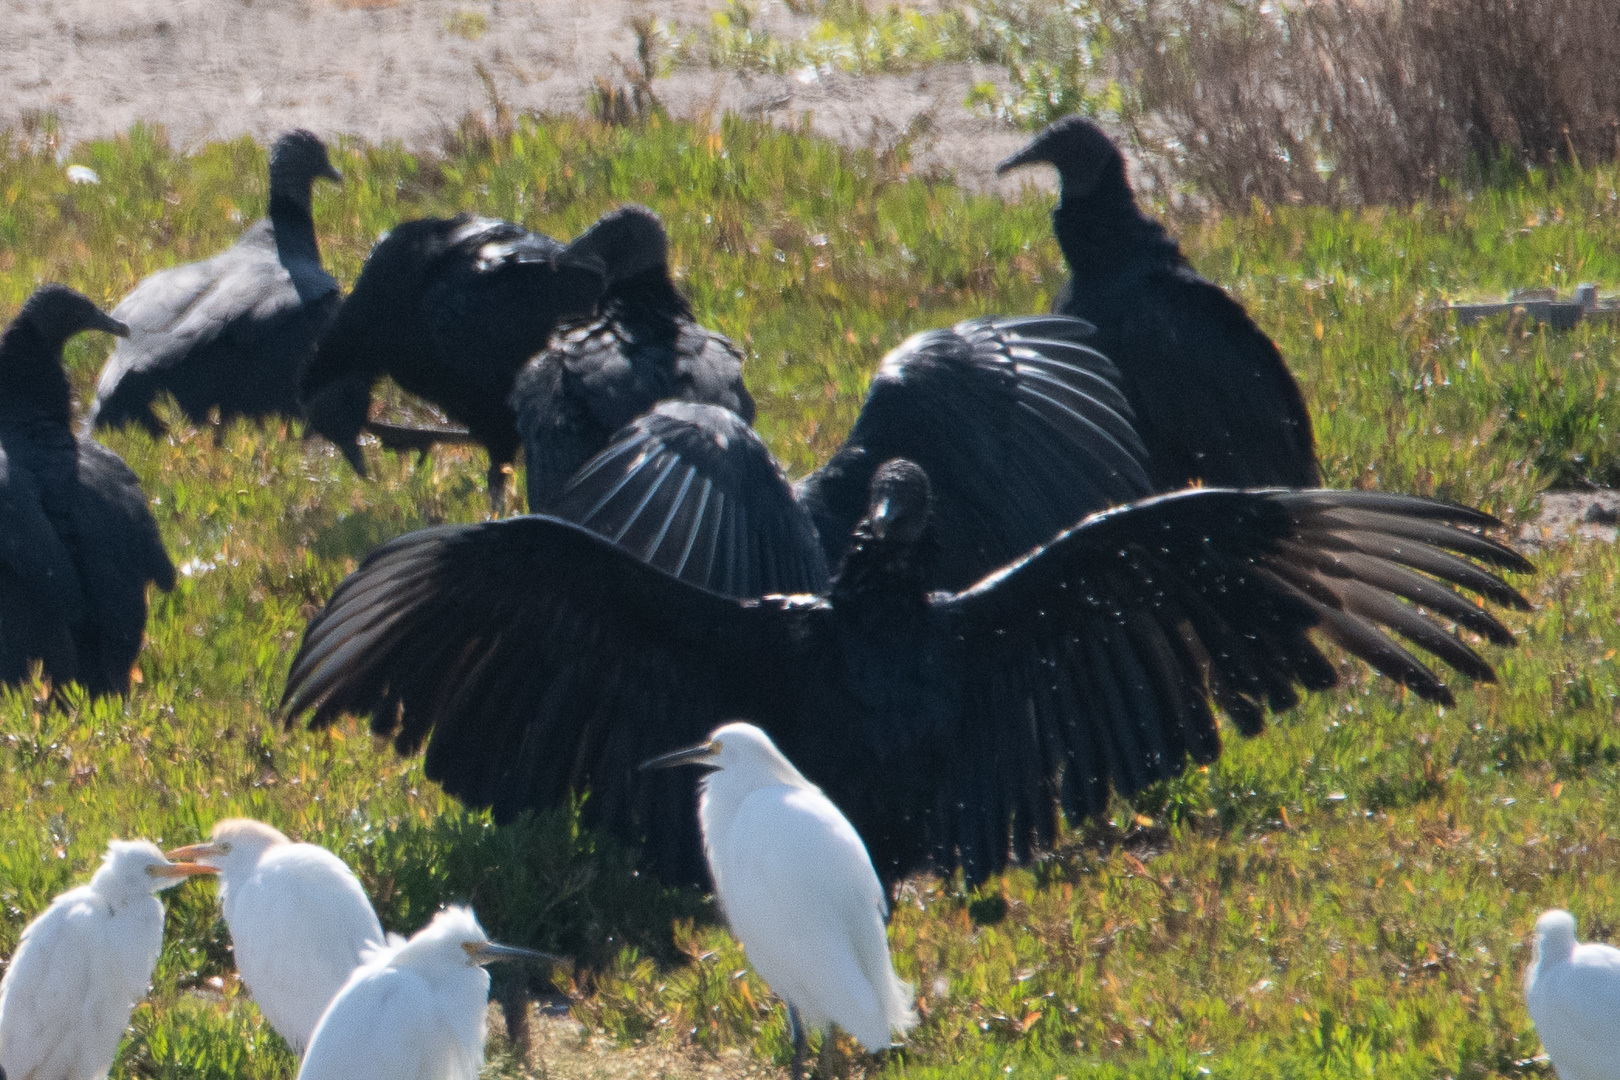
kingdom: Animalia
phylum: Chordata
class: Aves
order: Accipitriformes
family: Cathartidae
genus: Coragyps
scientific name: Coragyps atratus
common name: Black vulture
